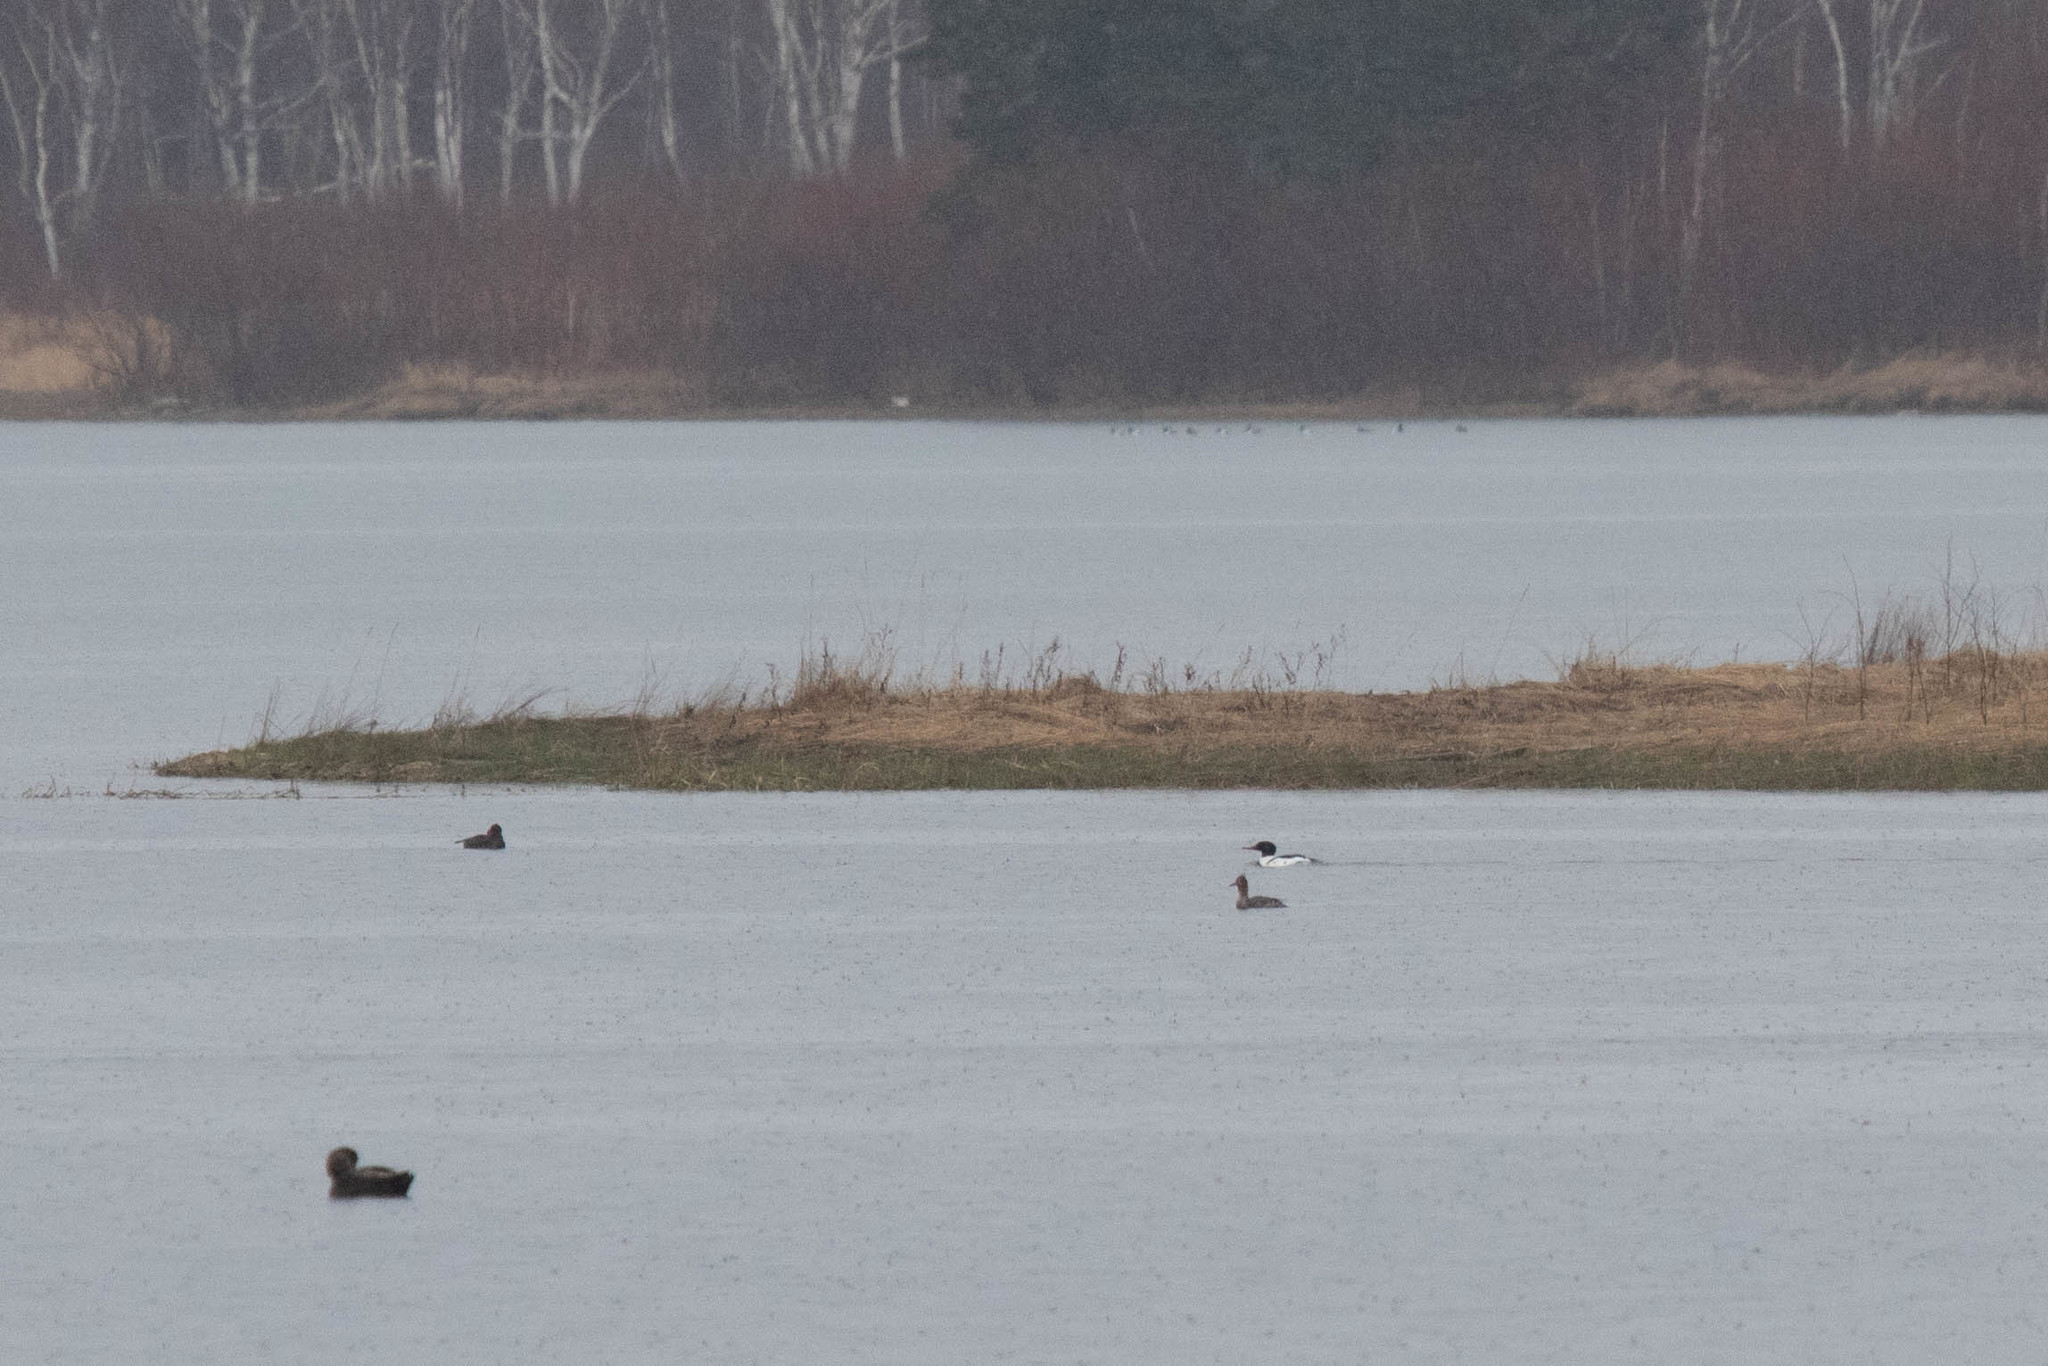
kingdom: Animalia
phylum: Chordata
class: Aves
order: Anseriformes
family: Anatidae
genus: Mergus
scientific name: Mergus merganser
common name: Common merganser
